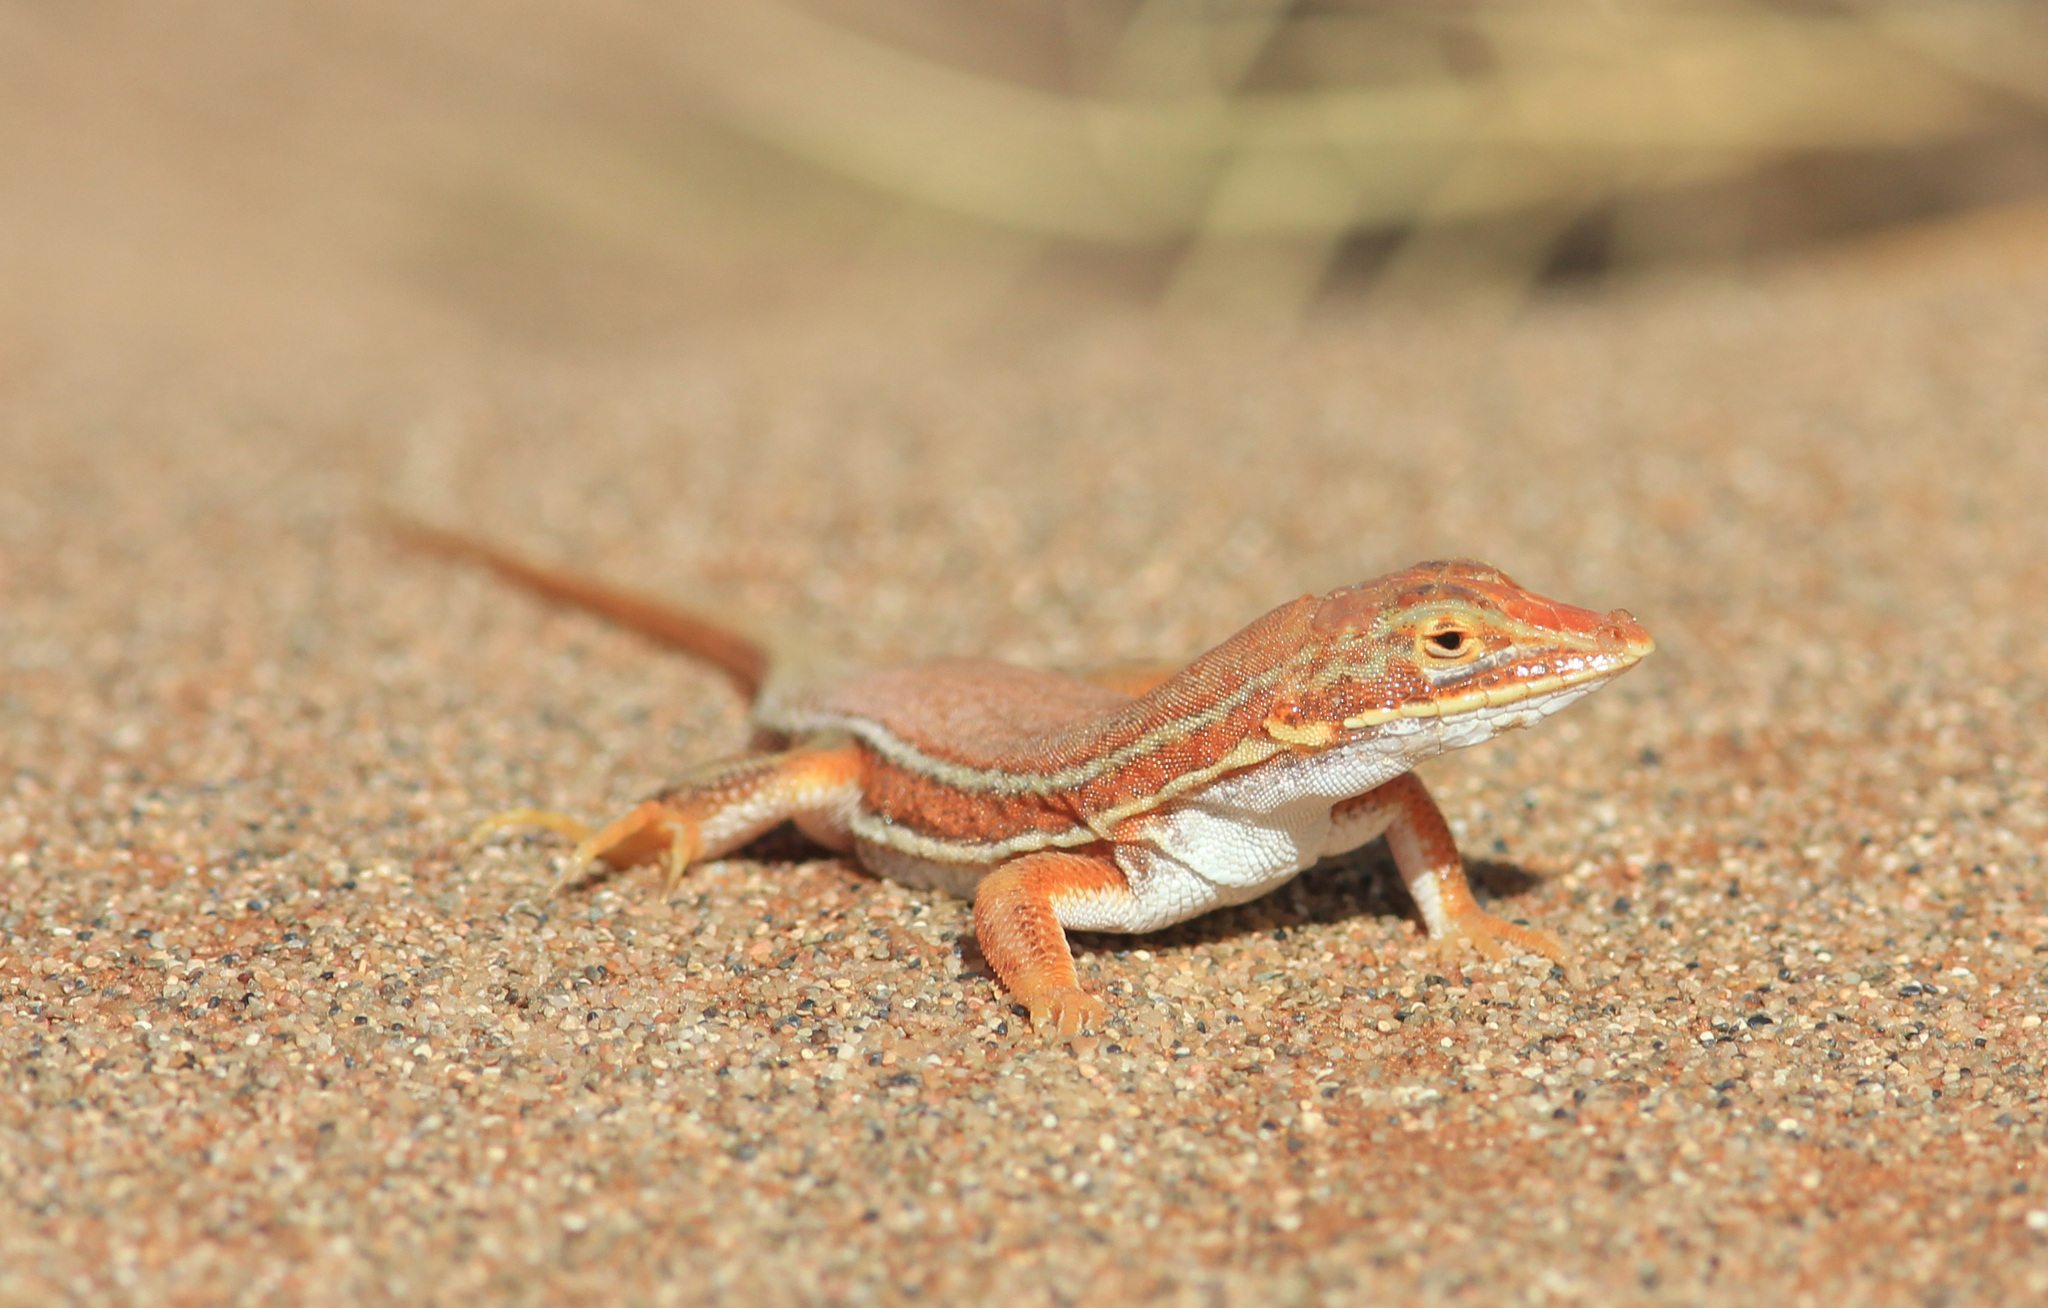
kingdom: Animalia
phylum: Chordata
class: Squamata
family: Lacertidae
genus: Meroles
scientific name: Meroles cuneirostris
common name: Wedge-snouted desert lizard
